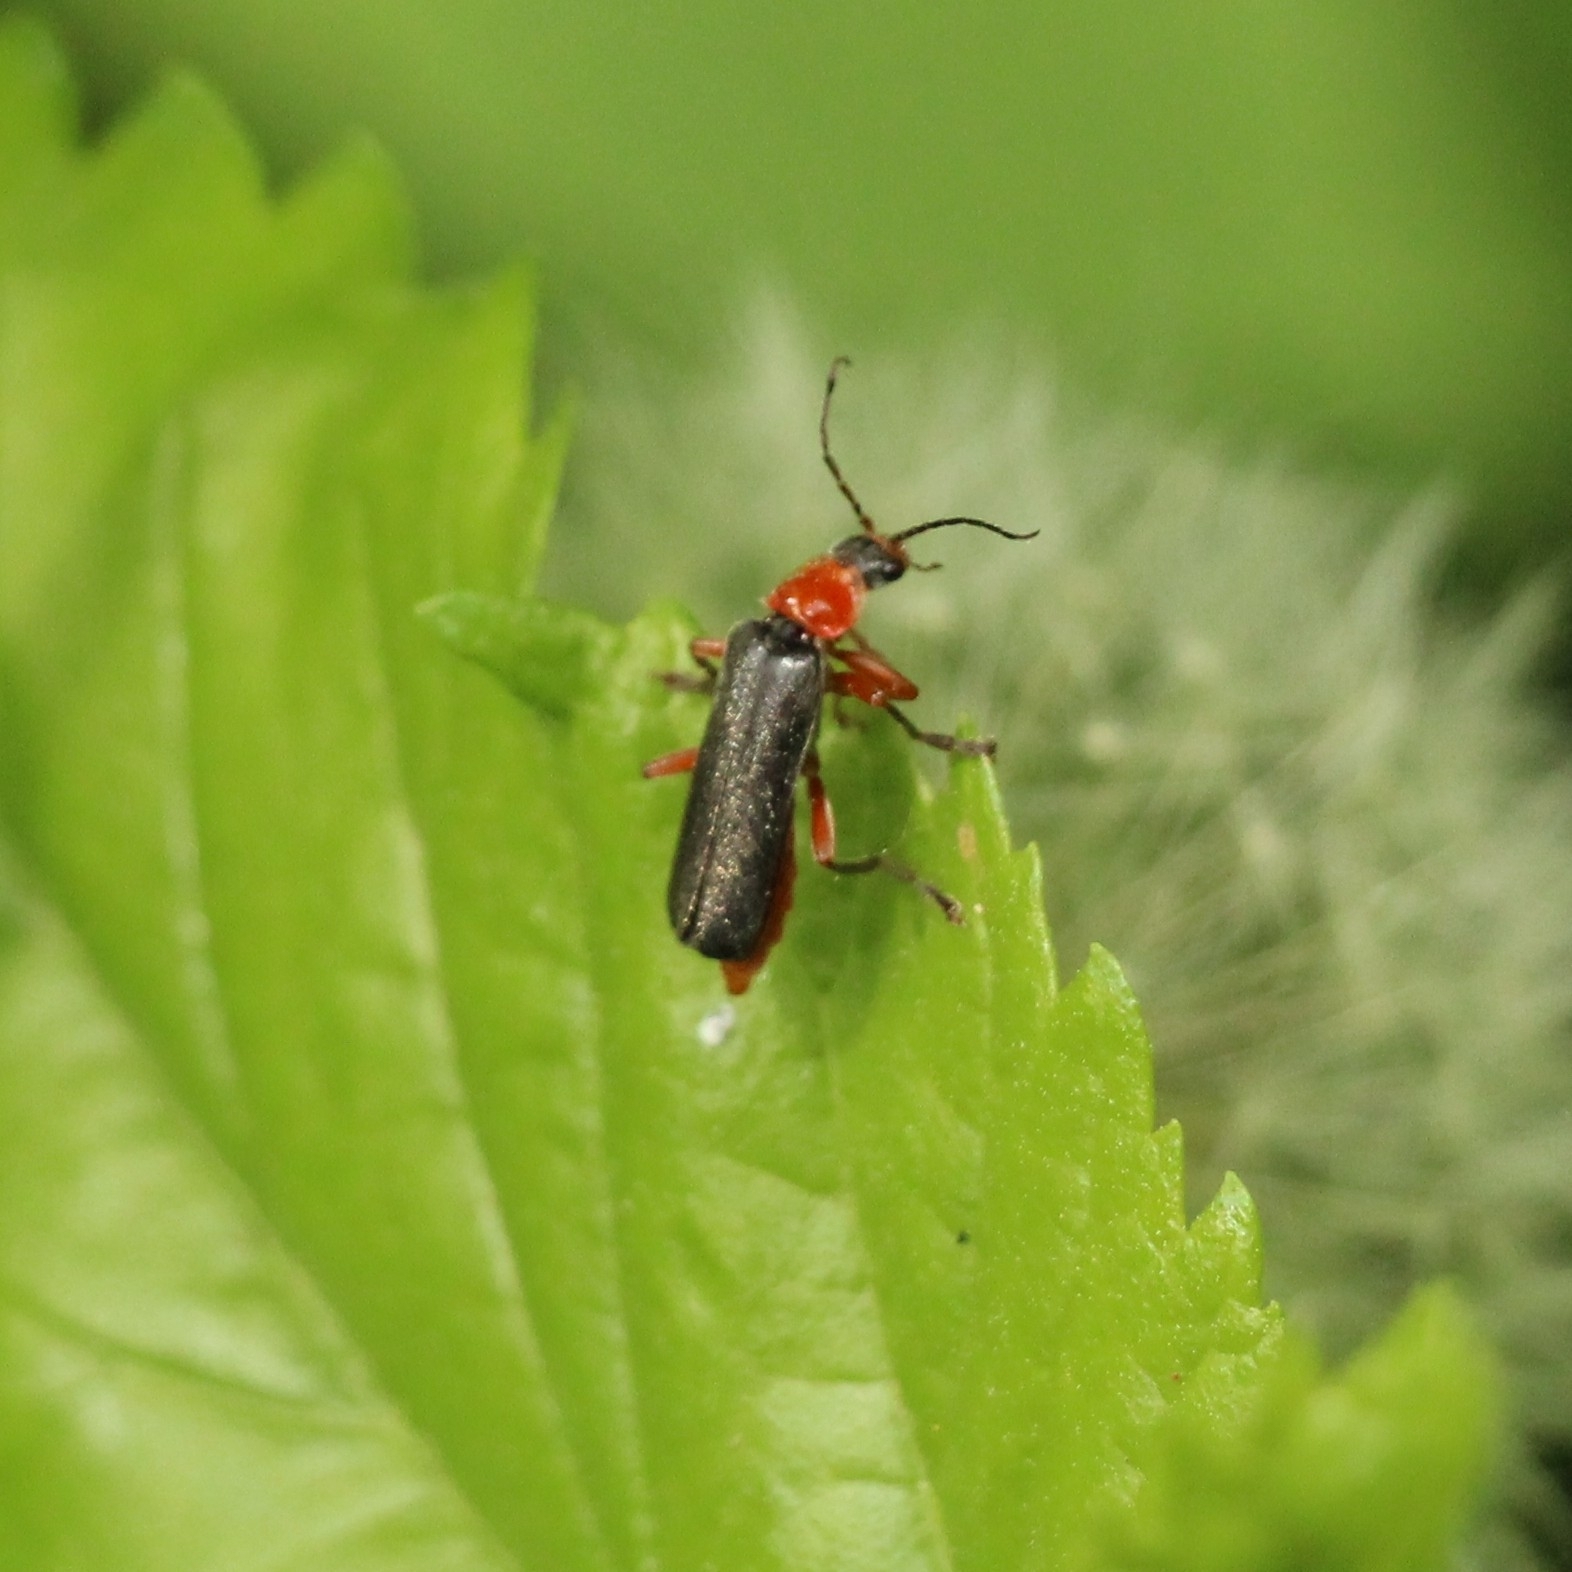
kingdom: Animalia
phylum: Arthropoda
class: Insecta
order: Coleoptera
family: Cantharidae
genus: Cantharis
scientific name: Cantharis pellucida
